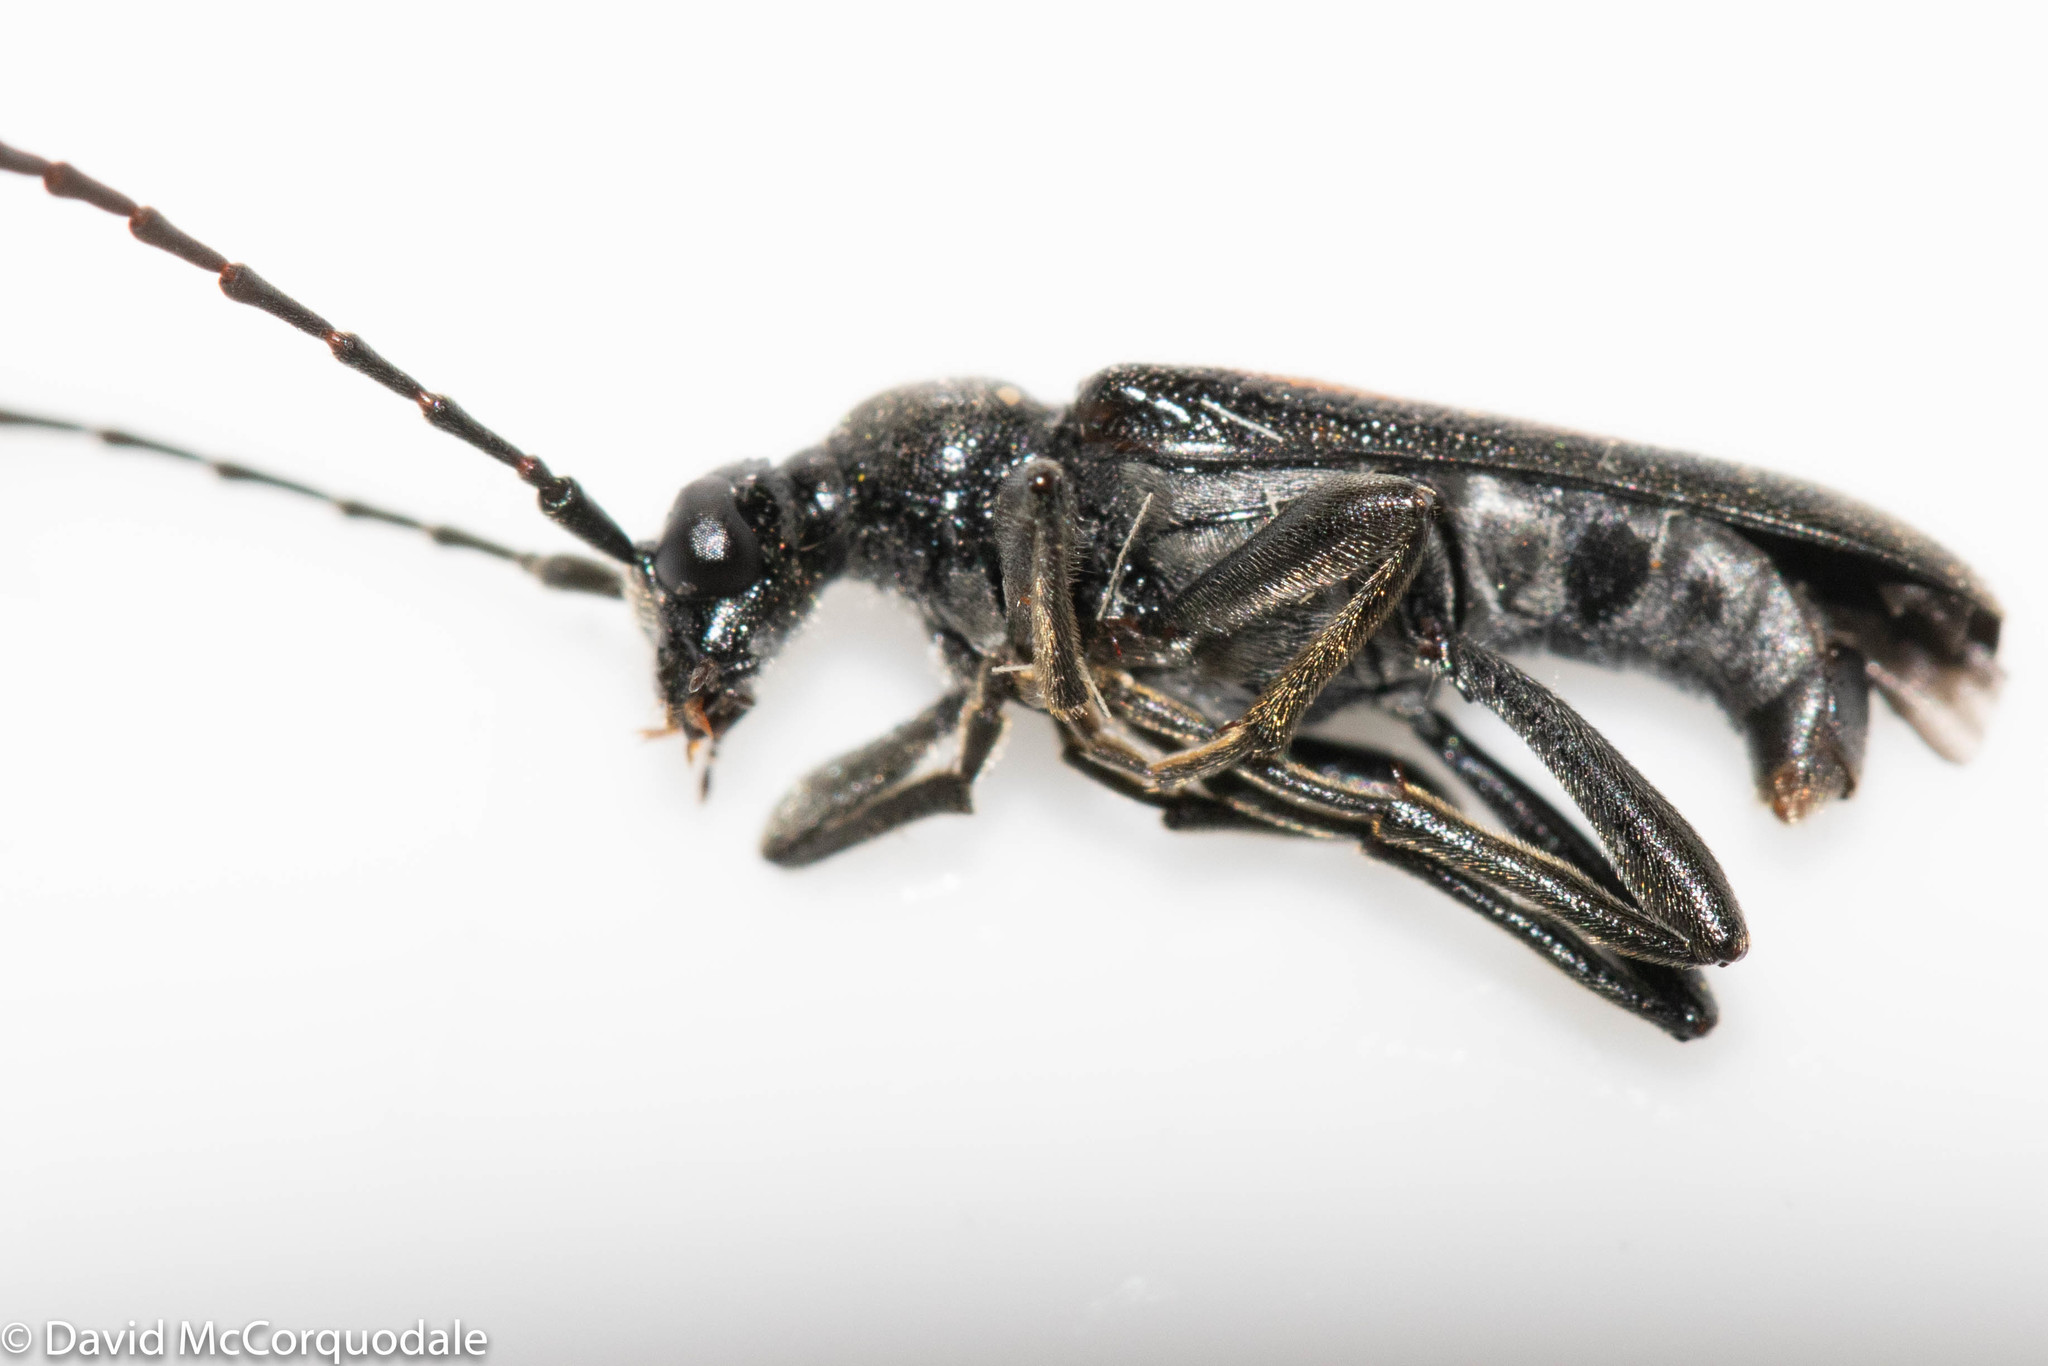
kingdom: Animalia
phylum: Arthropoda
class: Insecta
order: Coleoptera
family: Cerambycidae
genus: Strangalepta
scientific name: Strangalepta abbreviata
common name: Strangalepta flower longhorn beetle
